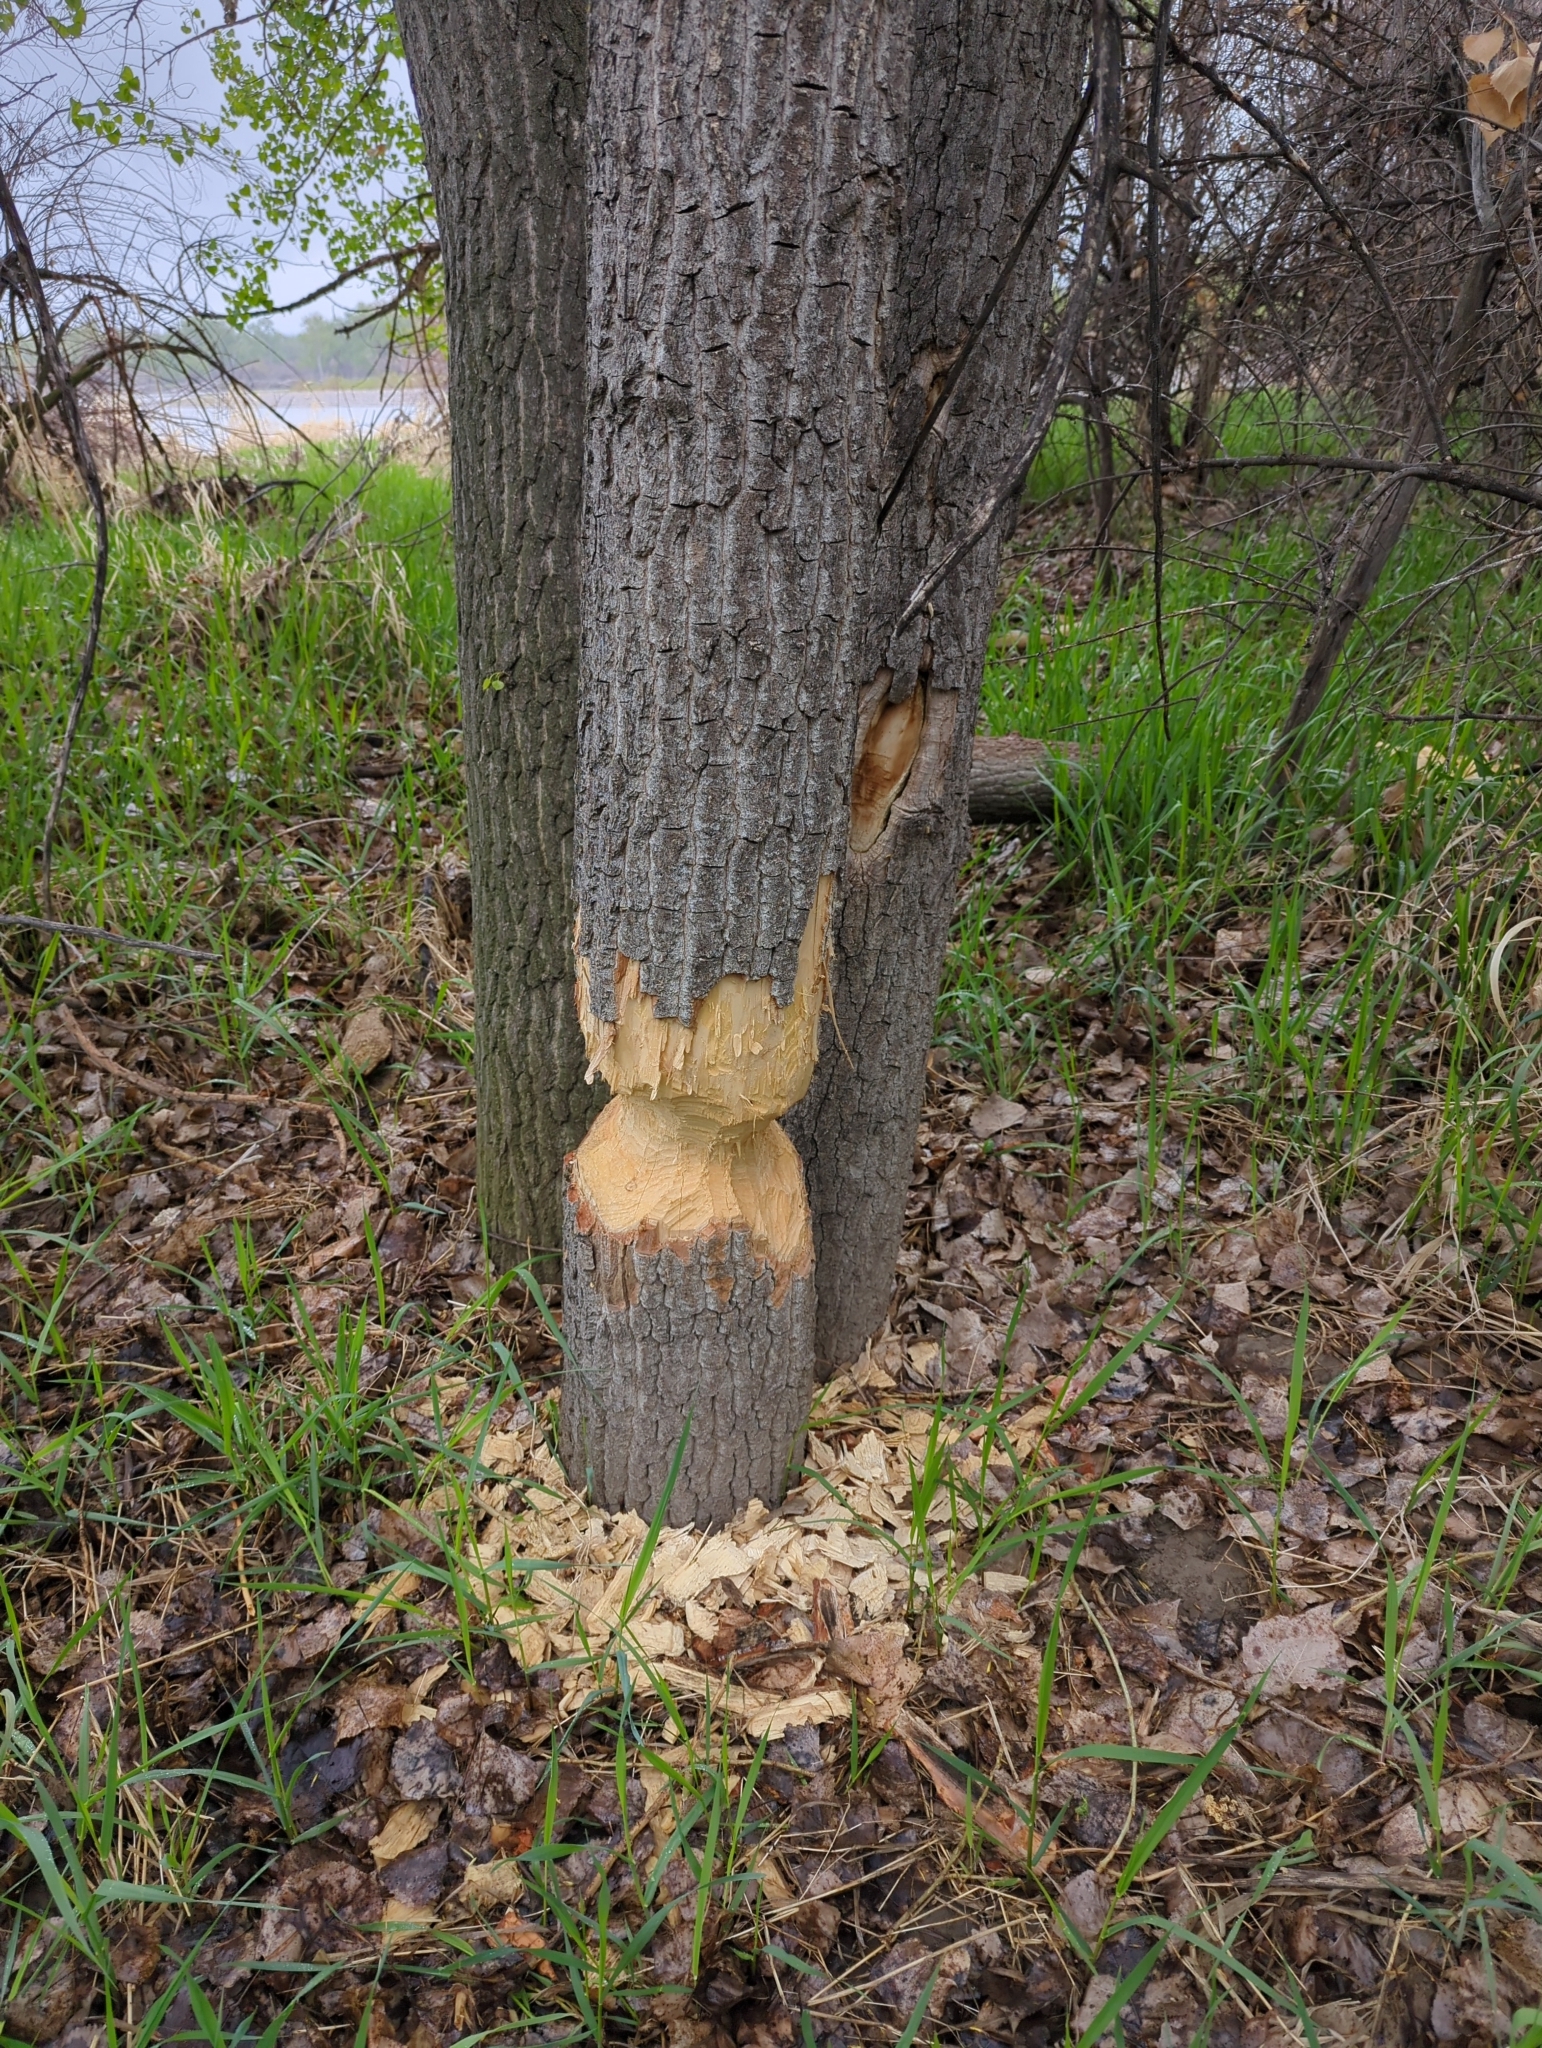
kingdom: Animalia
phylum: Chordata
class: Mammalia
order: Rodentia
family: Castoridae
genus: Castor
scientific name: Castor canadensis
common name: American beaver
